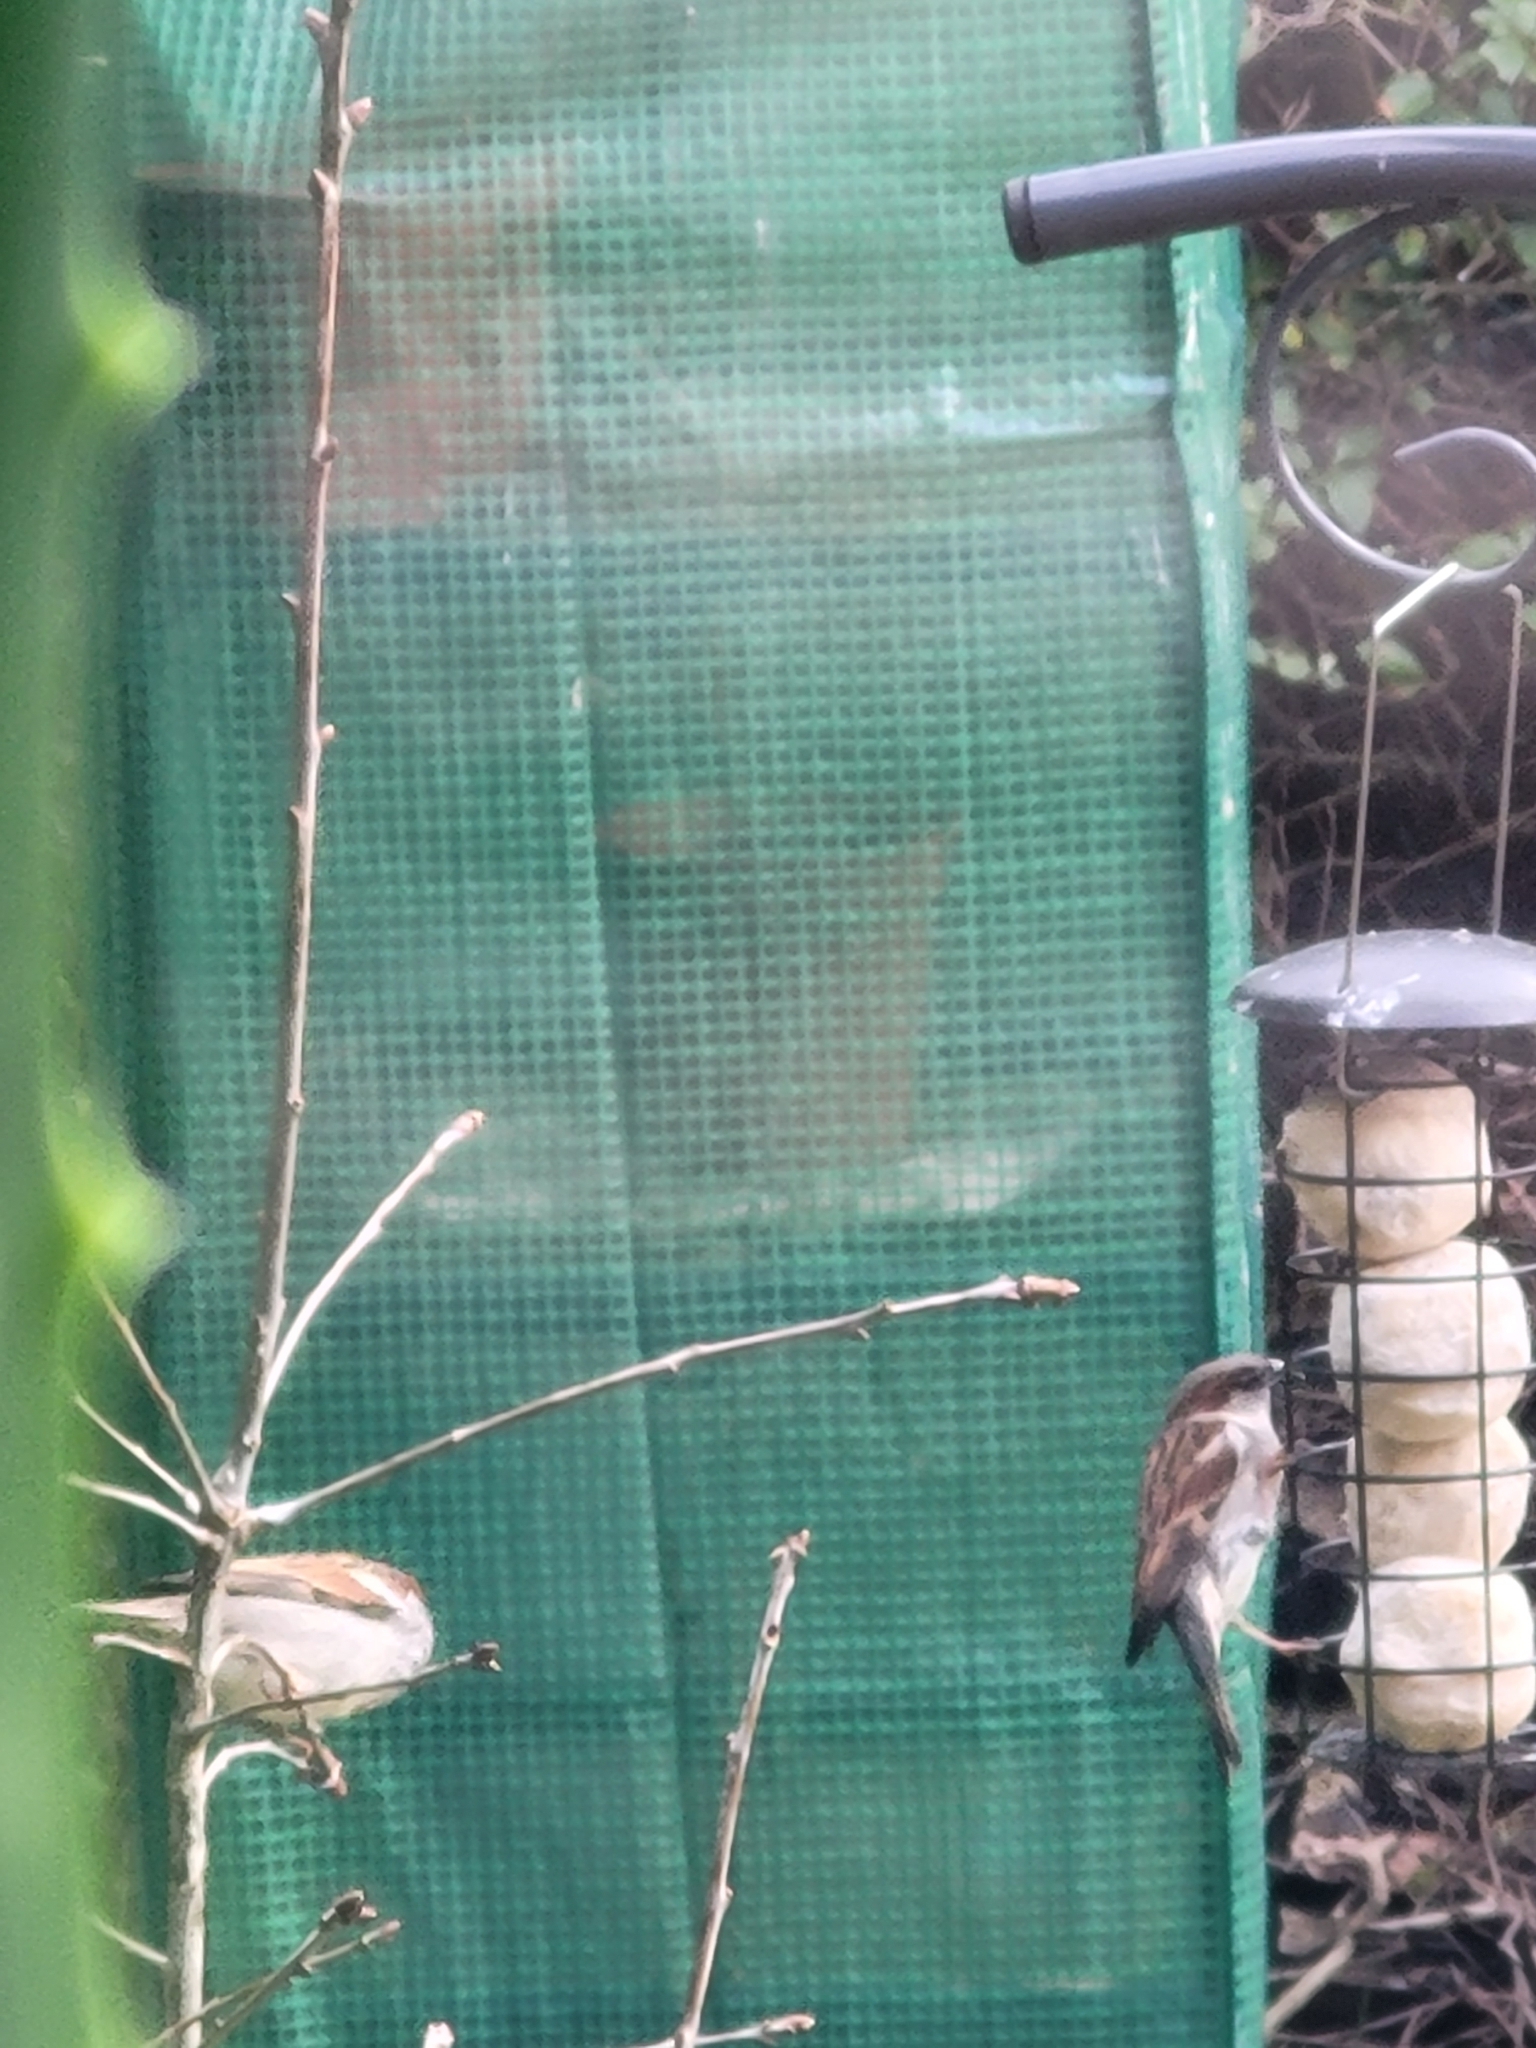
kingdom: Animalia
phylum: Chordata
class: Aves
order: Passeriformes
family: Passeridae
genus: Passer
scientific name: Passer domesticus
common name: House sparrow
